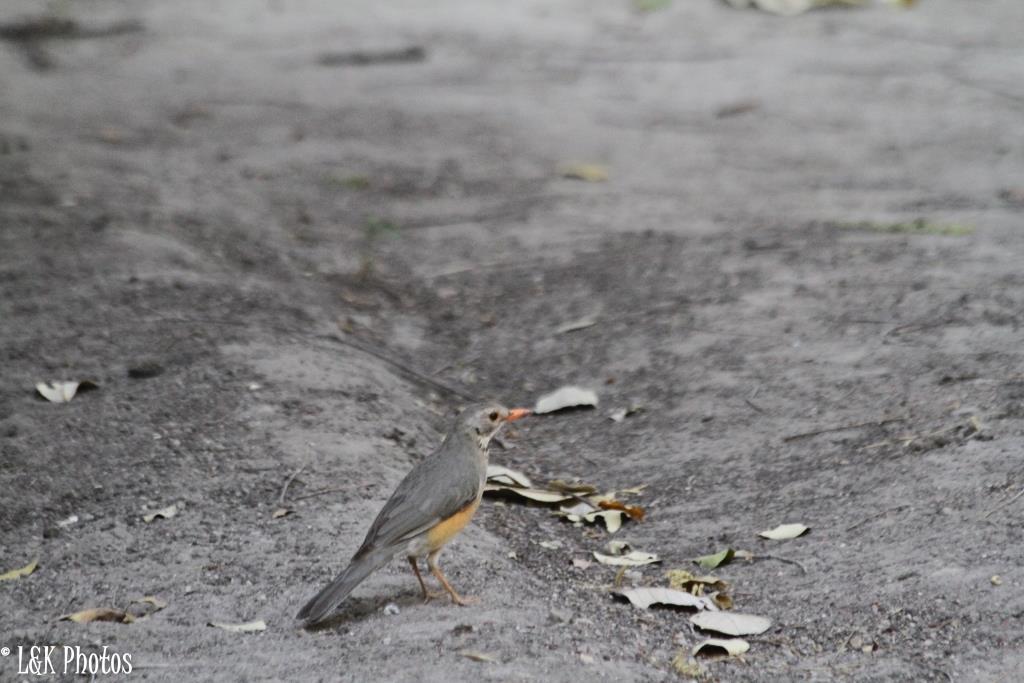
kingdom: Animalia
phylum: Chordata
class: Aves
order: Passeriformes
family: Turdidae
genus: Turdus
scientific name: Turdus libonyana
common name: Kurrichane thrush
